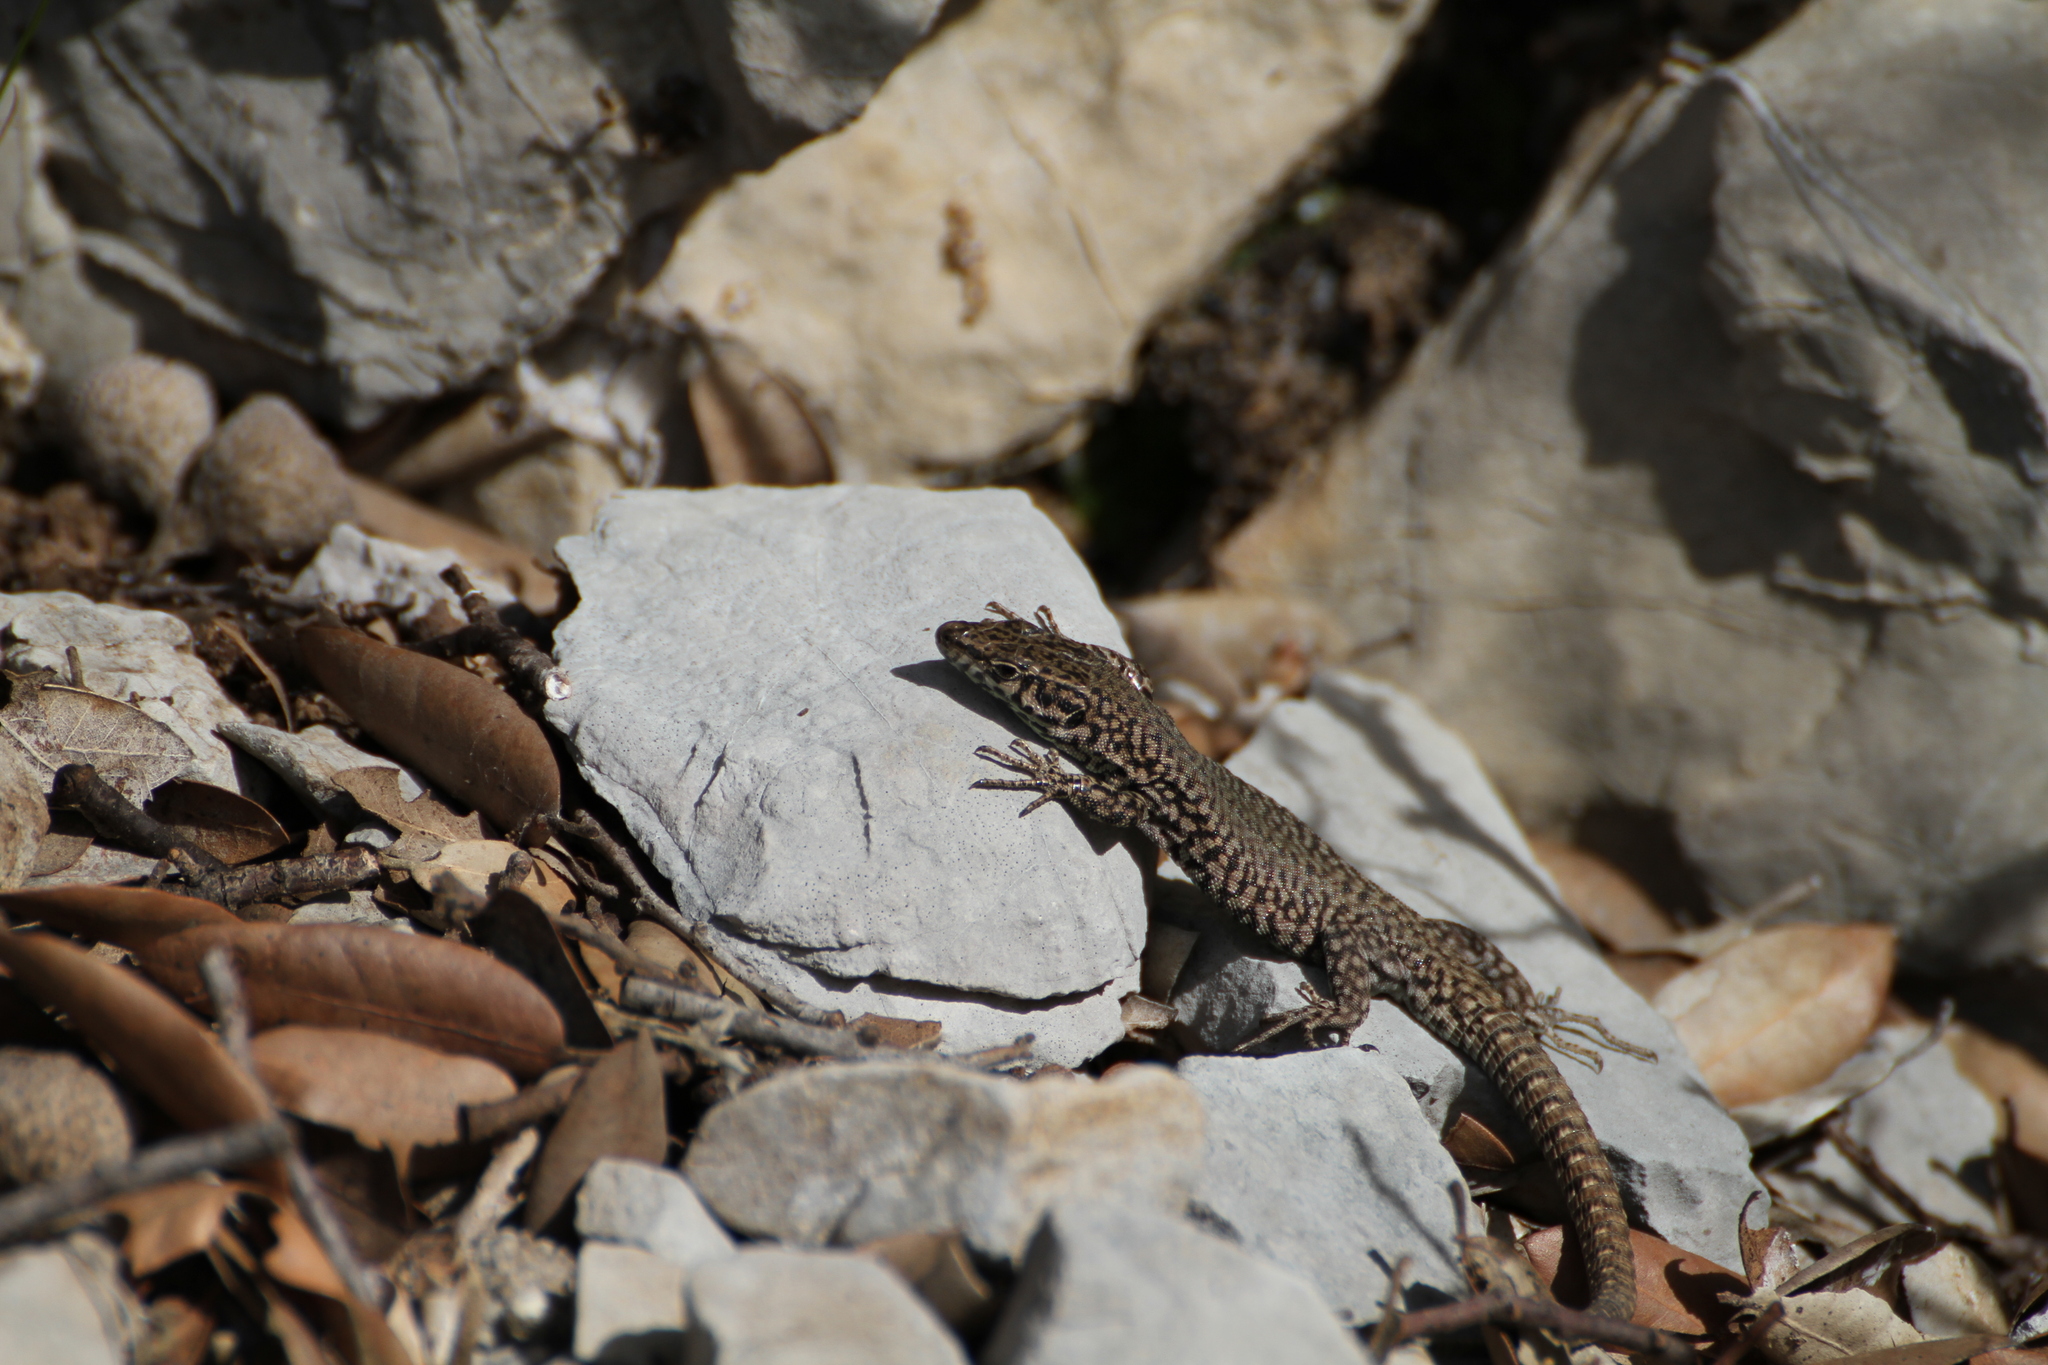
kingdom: Animalia
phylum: Chordata
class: Squamata
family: Lacertidae
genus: Podarcis
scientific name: Podarcis liolepis
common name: Catalonian wall lizard
